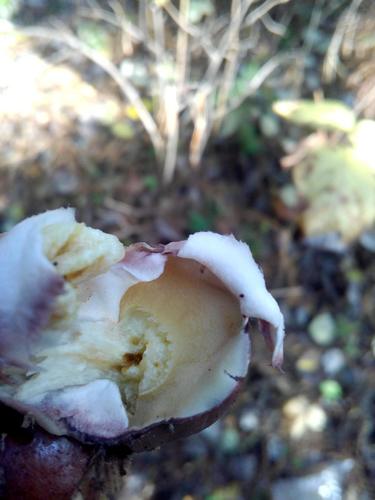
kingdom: Fungi
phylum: Basidiomycota
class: Agaricomycetes
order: Boletales
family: Suillaceae
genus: Suillus
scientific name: Suillus luteus
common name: Slippery jack
